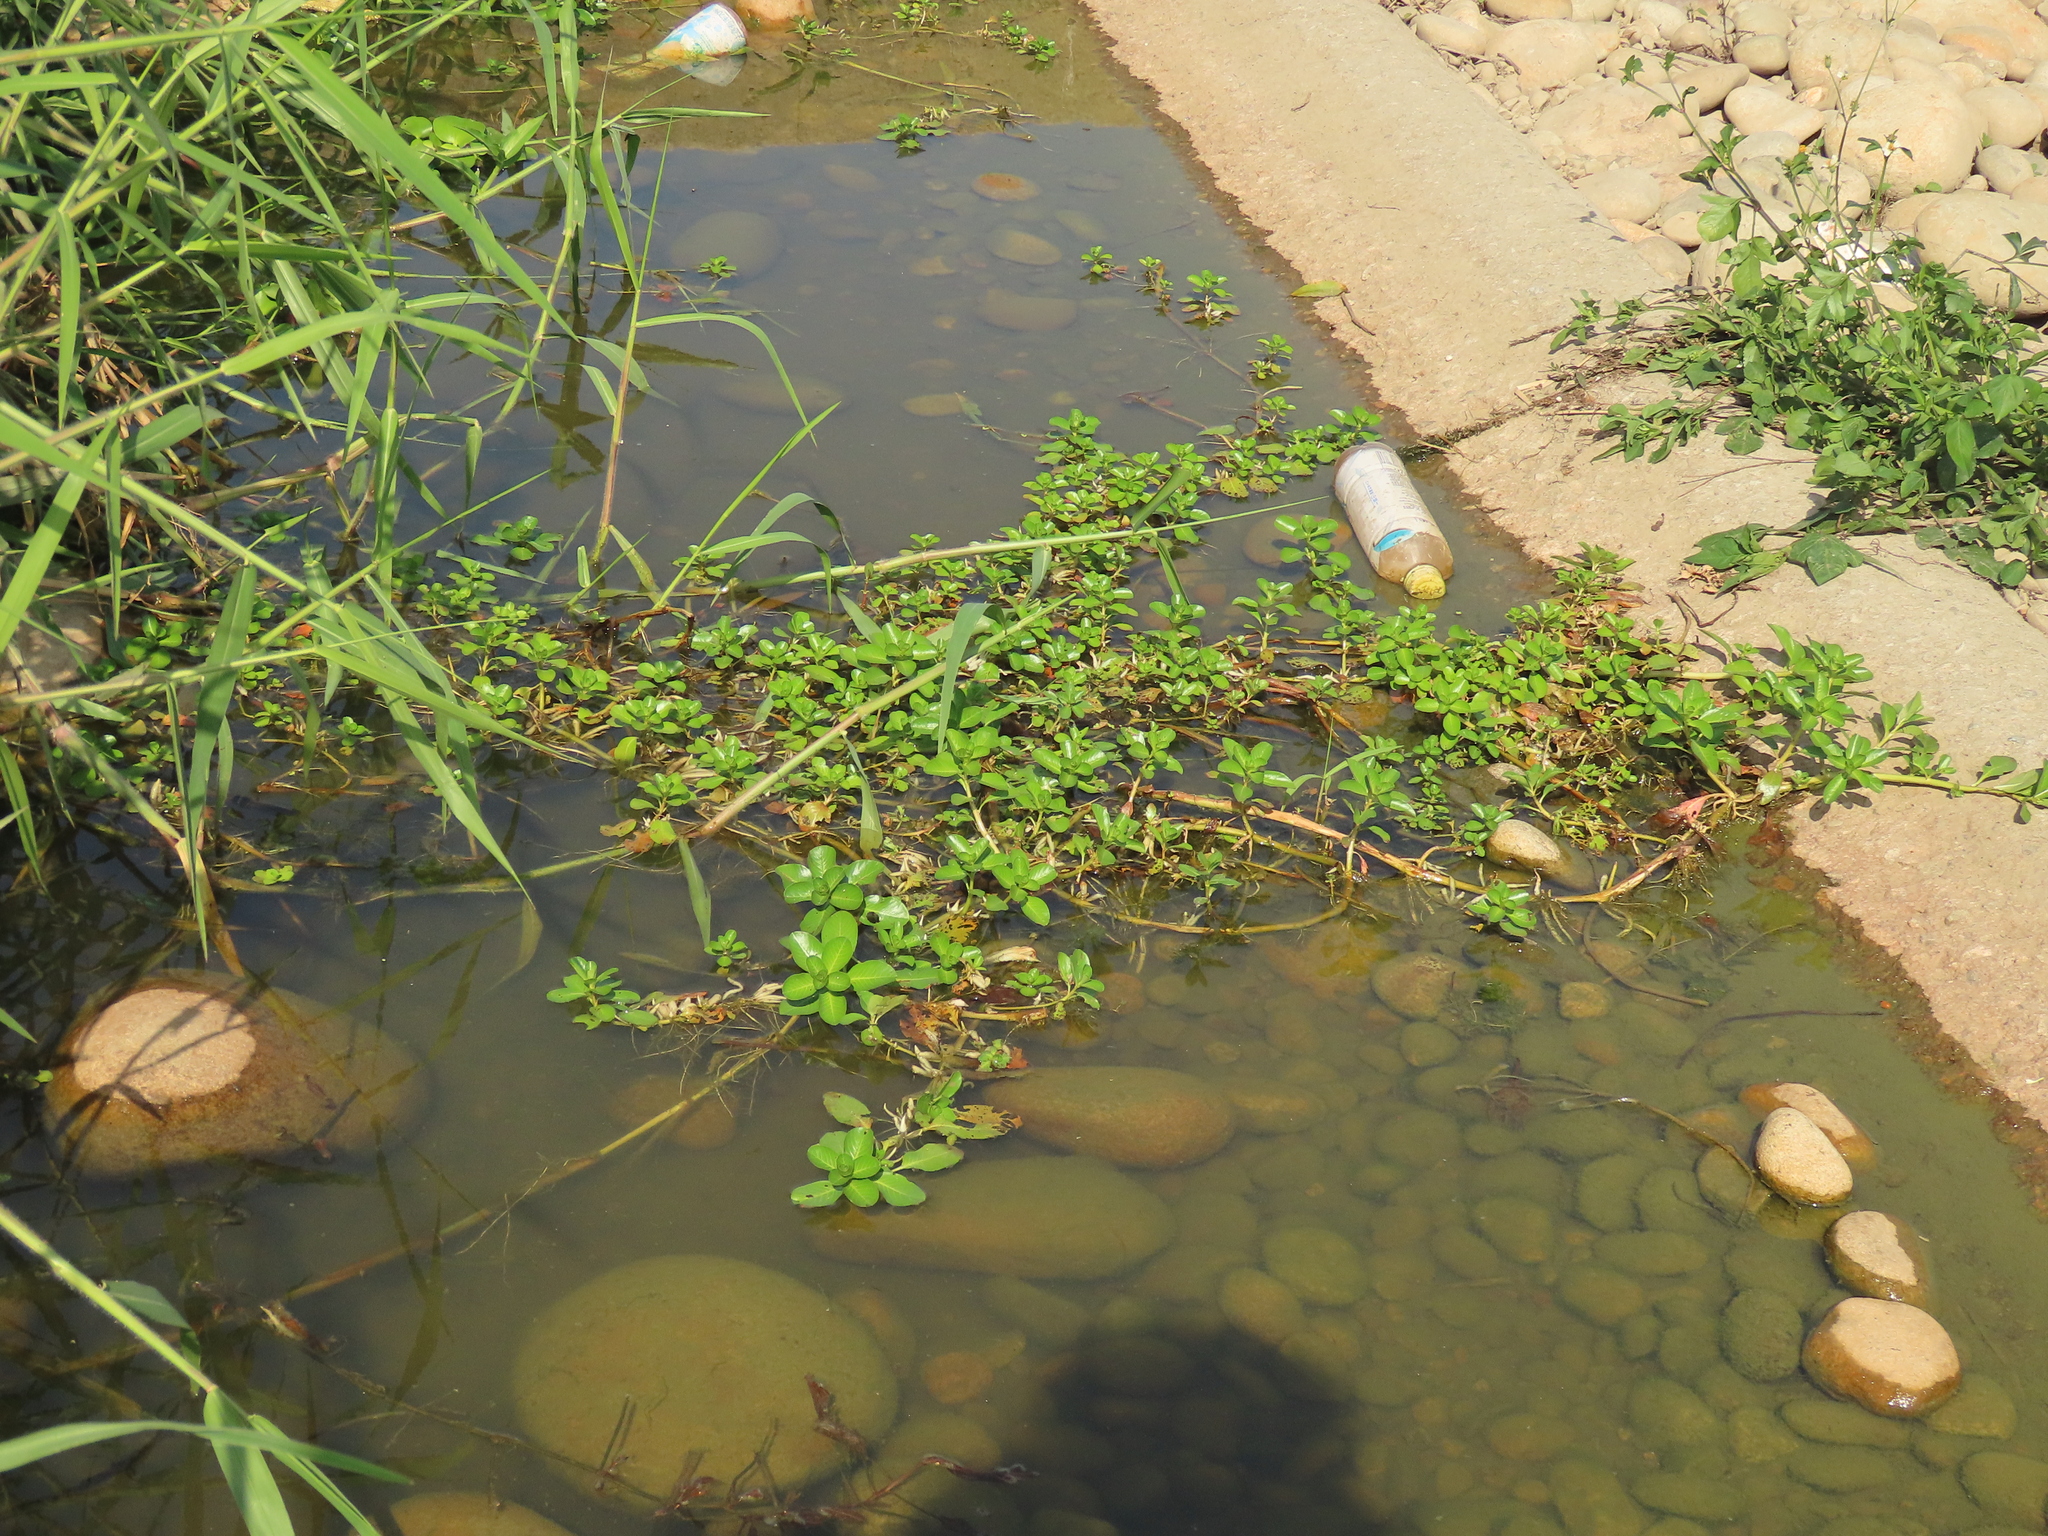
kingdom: Plantae
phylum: Tracheophyta
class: Magnoliopsida
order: Myrtales
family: Onagraceae
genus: Ludwigia
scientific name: Ludwigia taiwanensis
